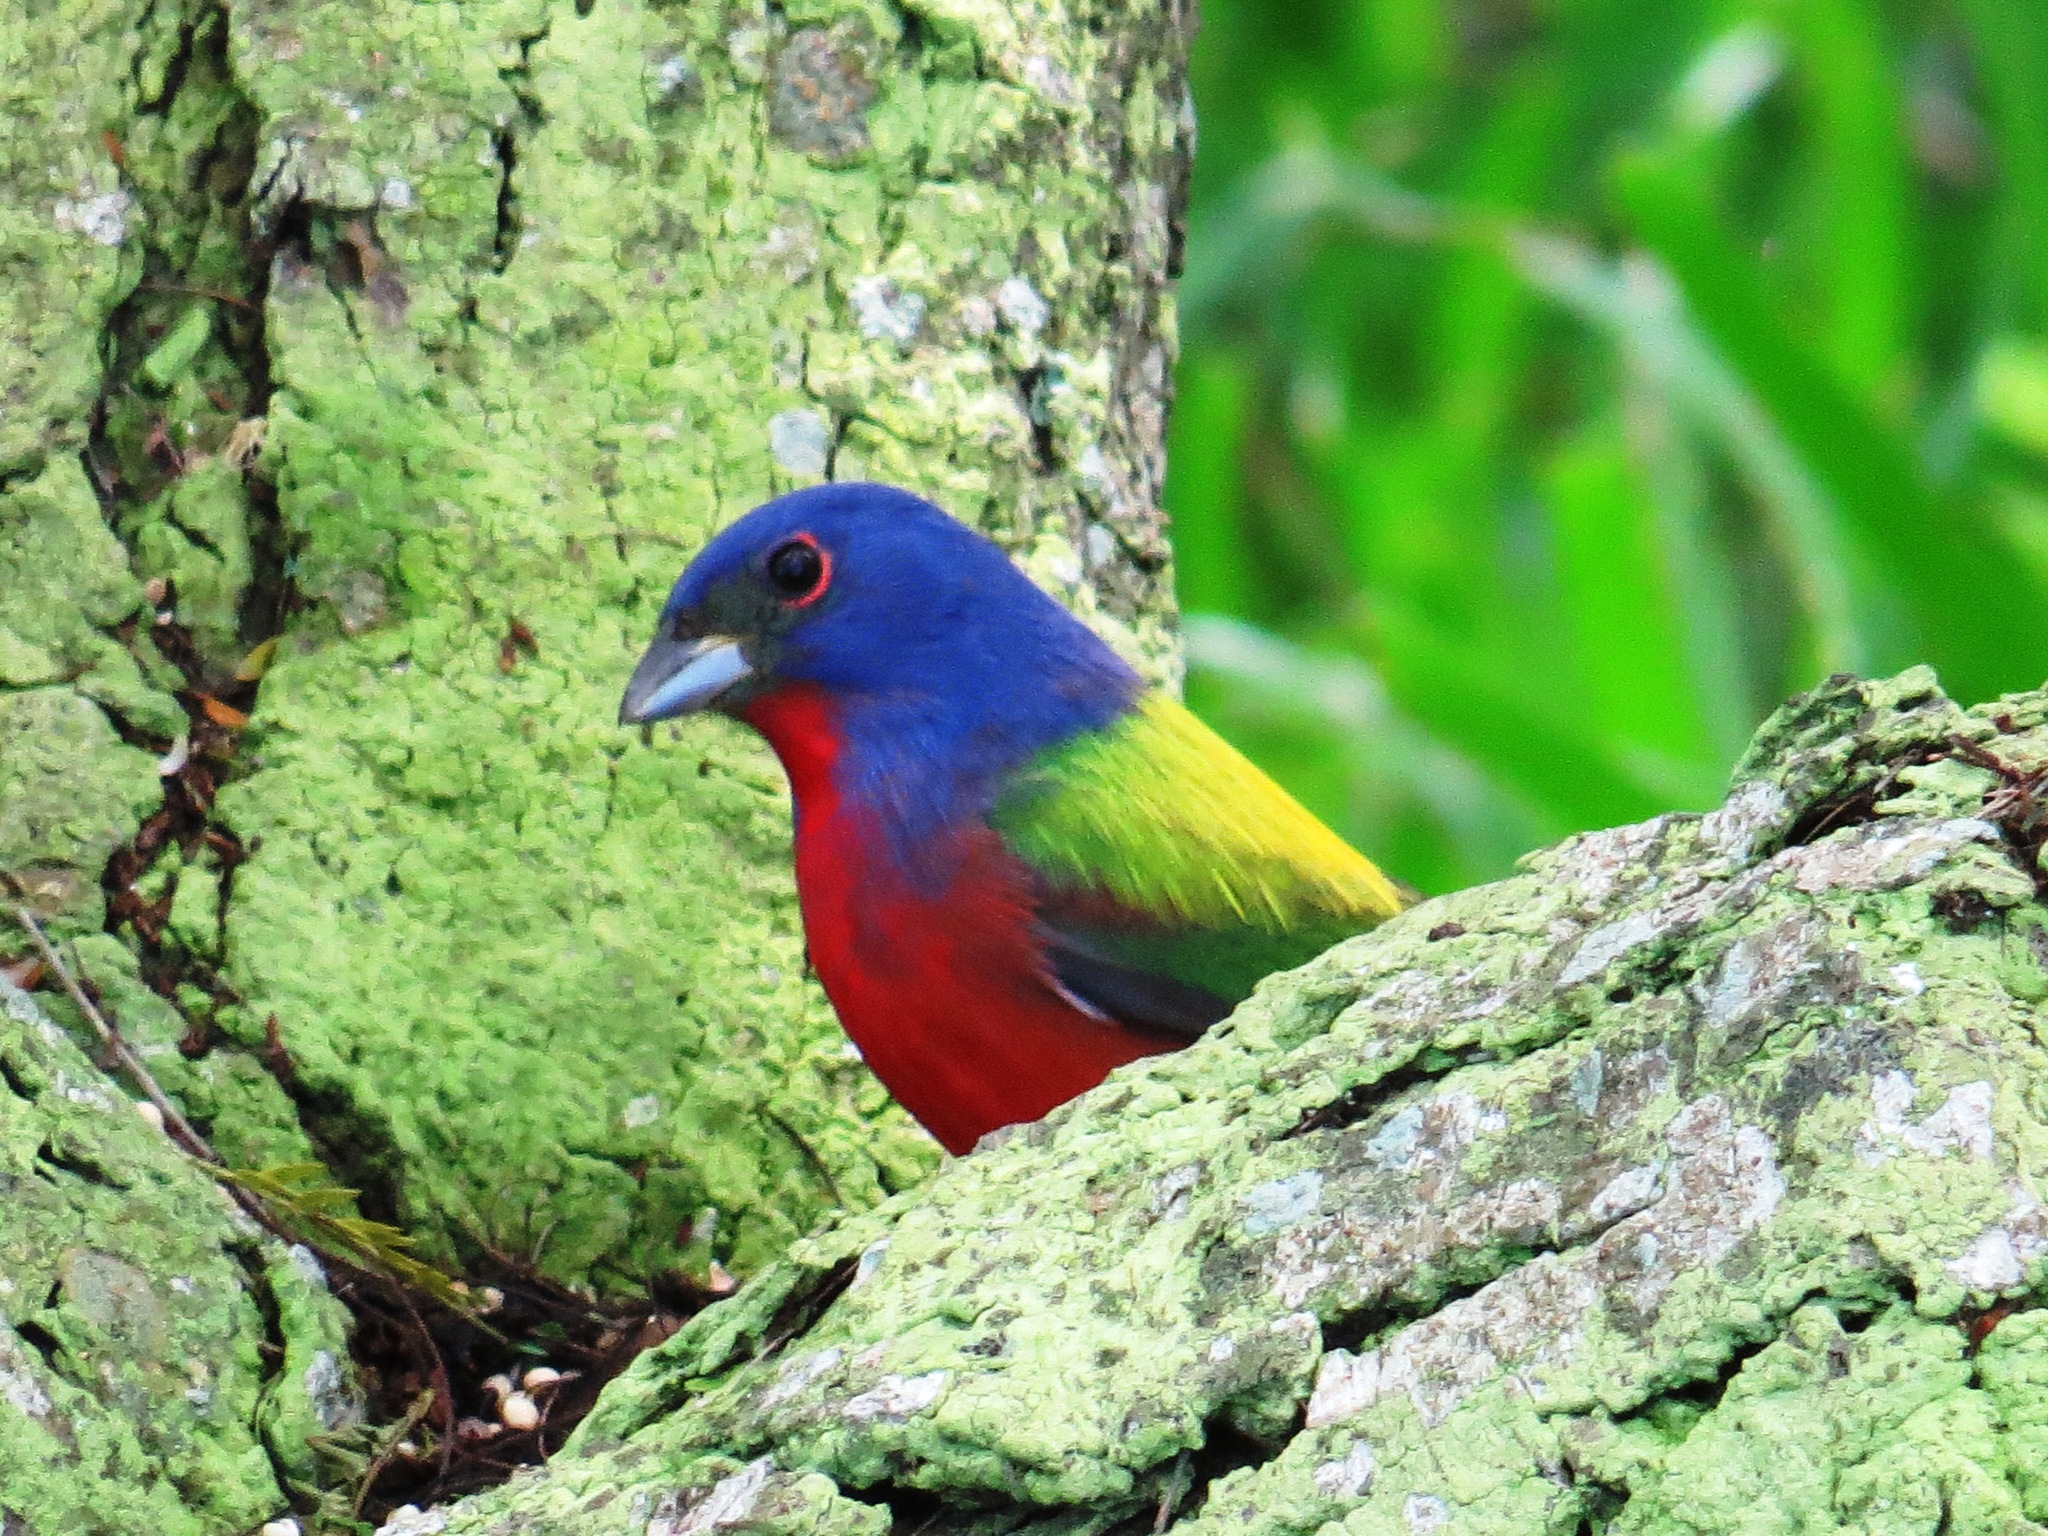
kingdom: Animalia
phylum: Chordata
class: Aves
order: Passeriformes
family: Cardinalidae
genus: Passerina
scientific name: Passerina ciris
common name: Painted bunting
